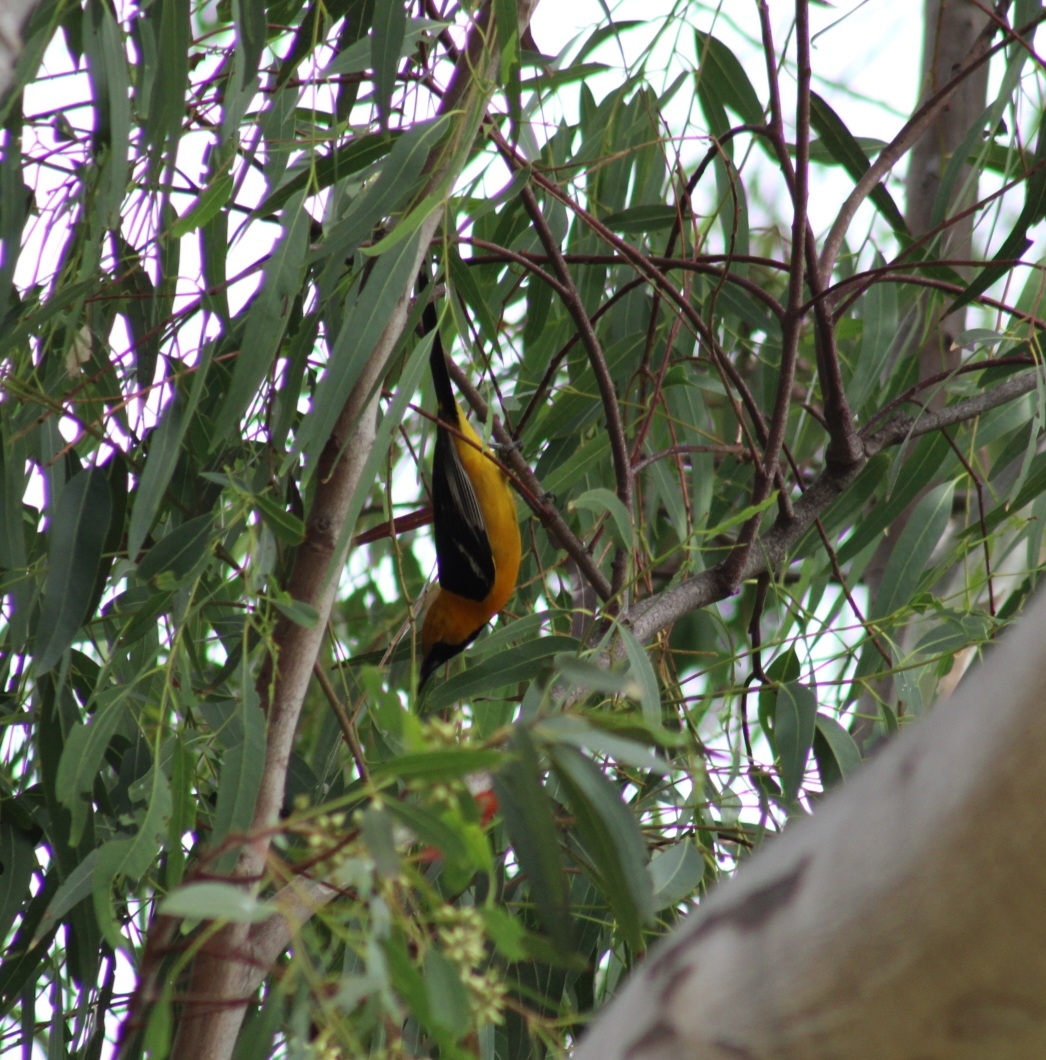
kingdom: Animalia
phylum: Chordata
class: Aves
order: Passeriformes
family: Icteridae
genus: Icterus
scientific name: Icterus cucullatus
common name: Hooded oriole
